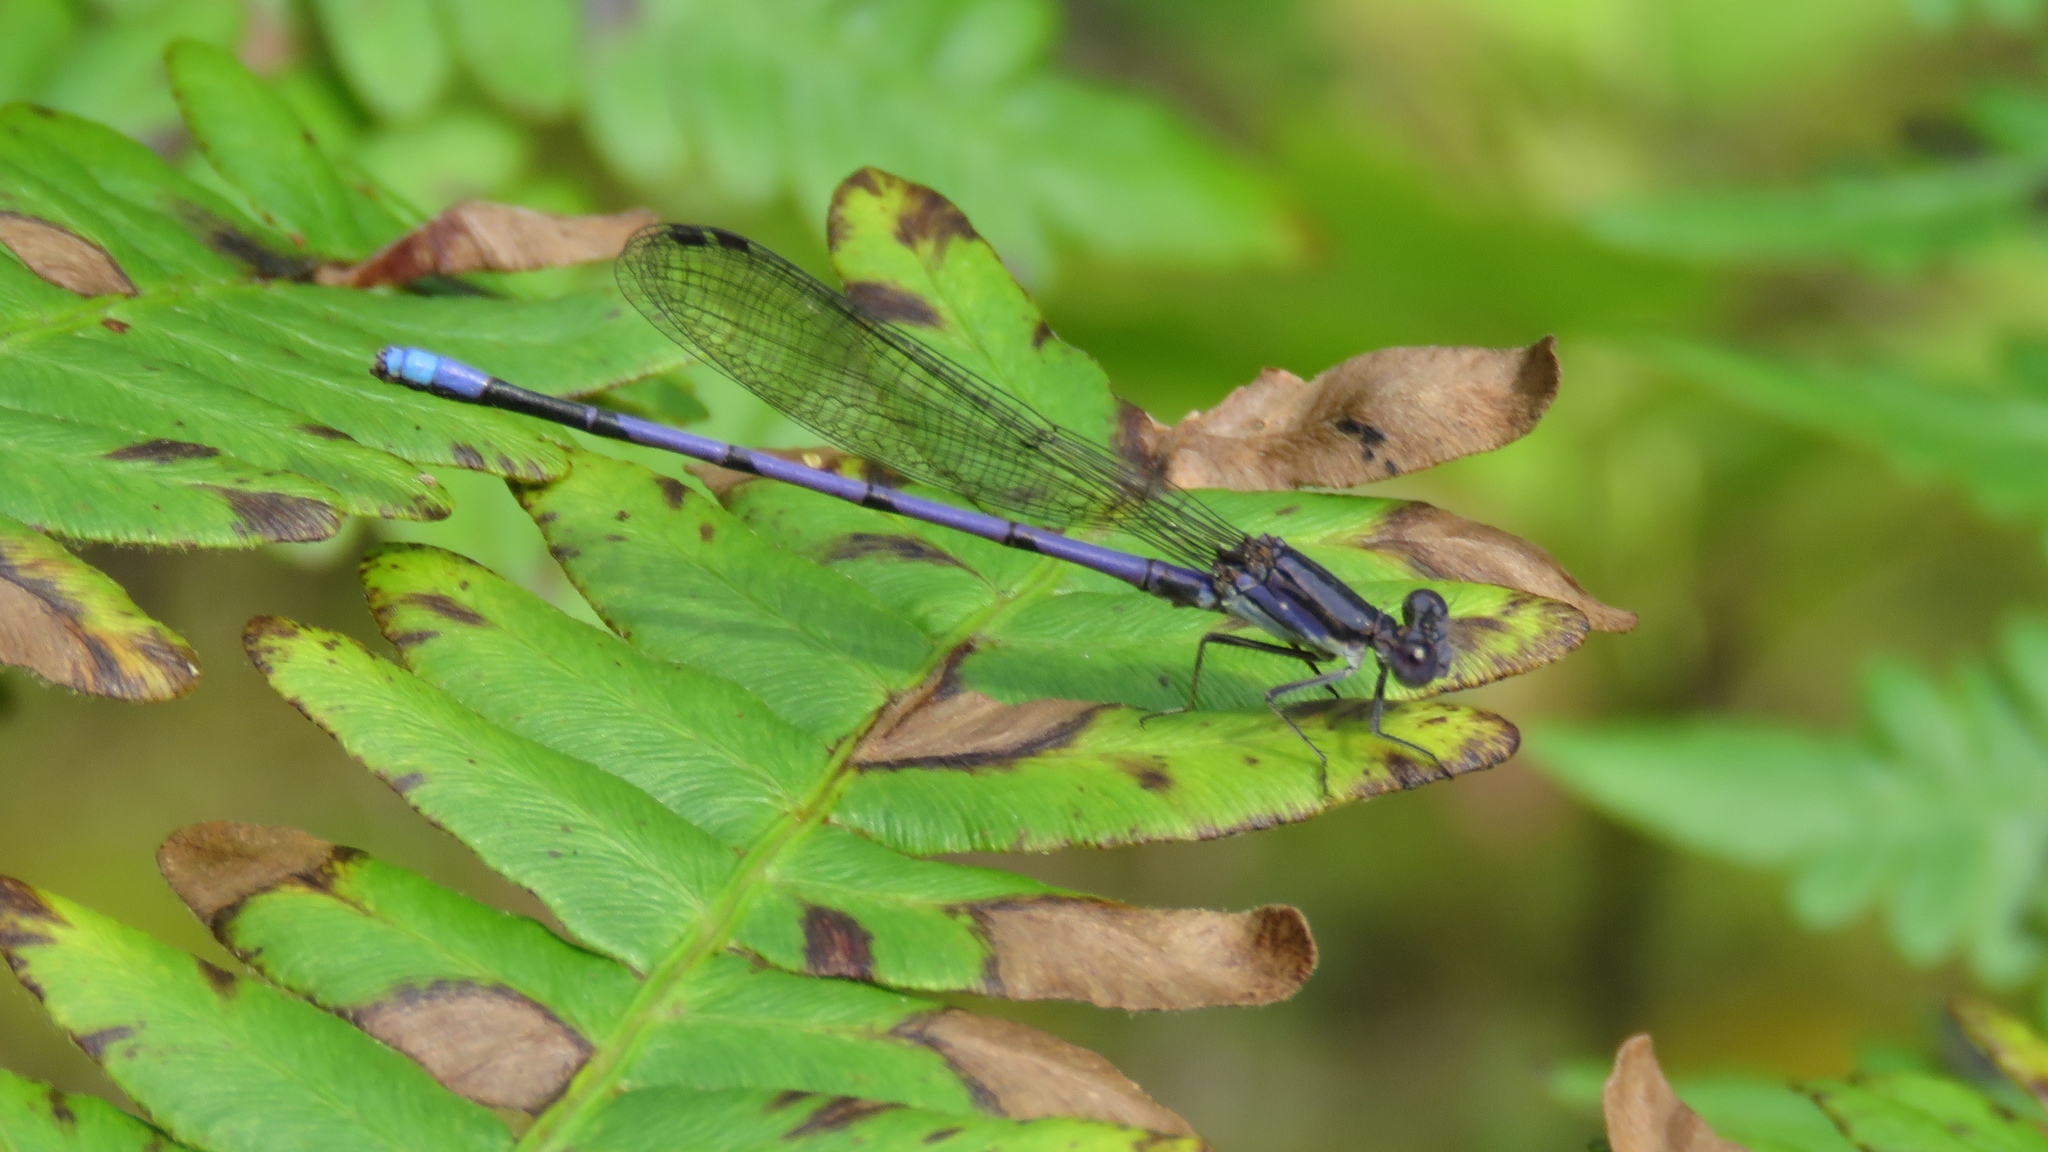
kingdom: Animalia
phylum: Arthropoda
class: Insecta
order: Odonata
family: Coenagrionidae
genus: Argia
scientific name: Argia fumipennis
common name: Variable dancer
